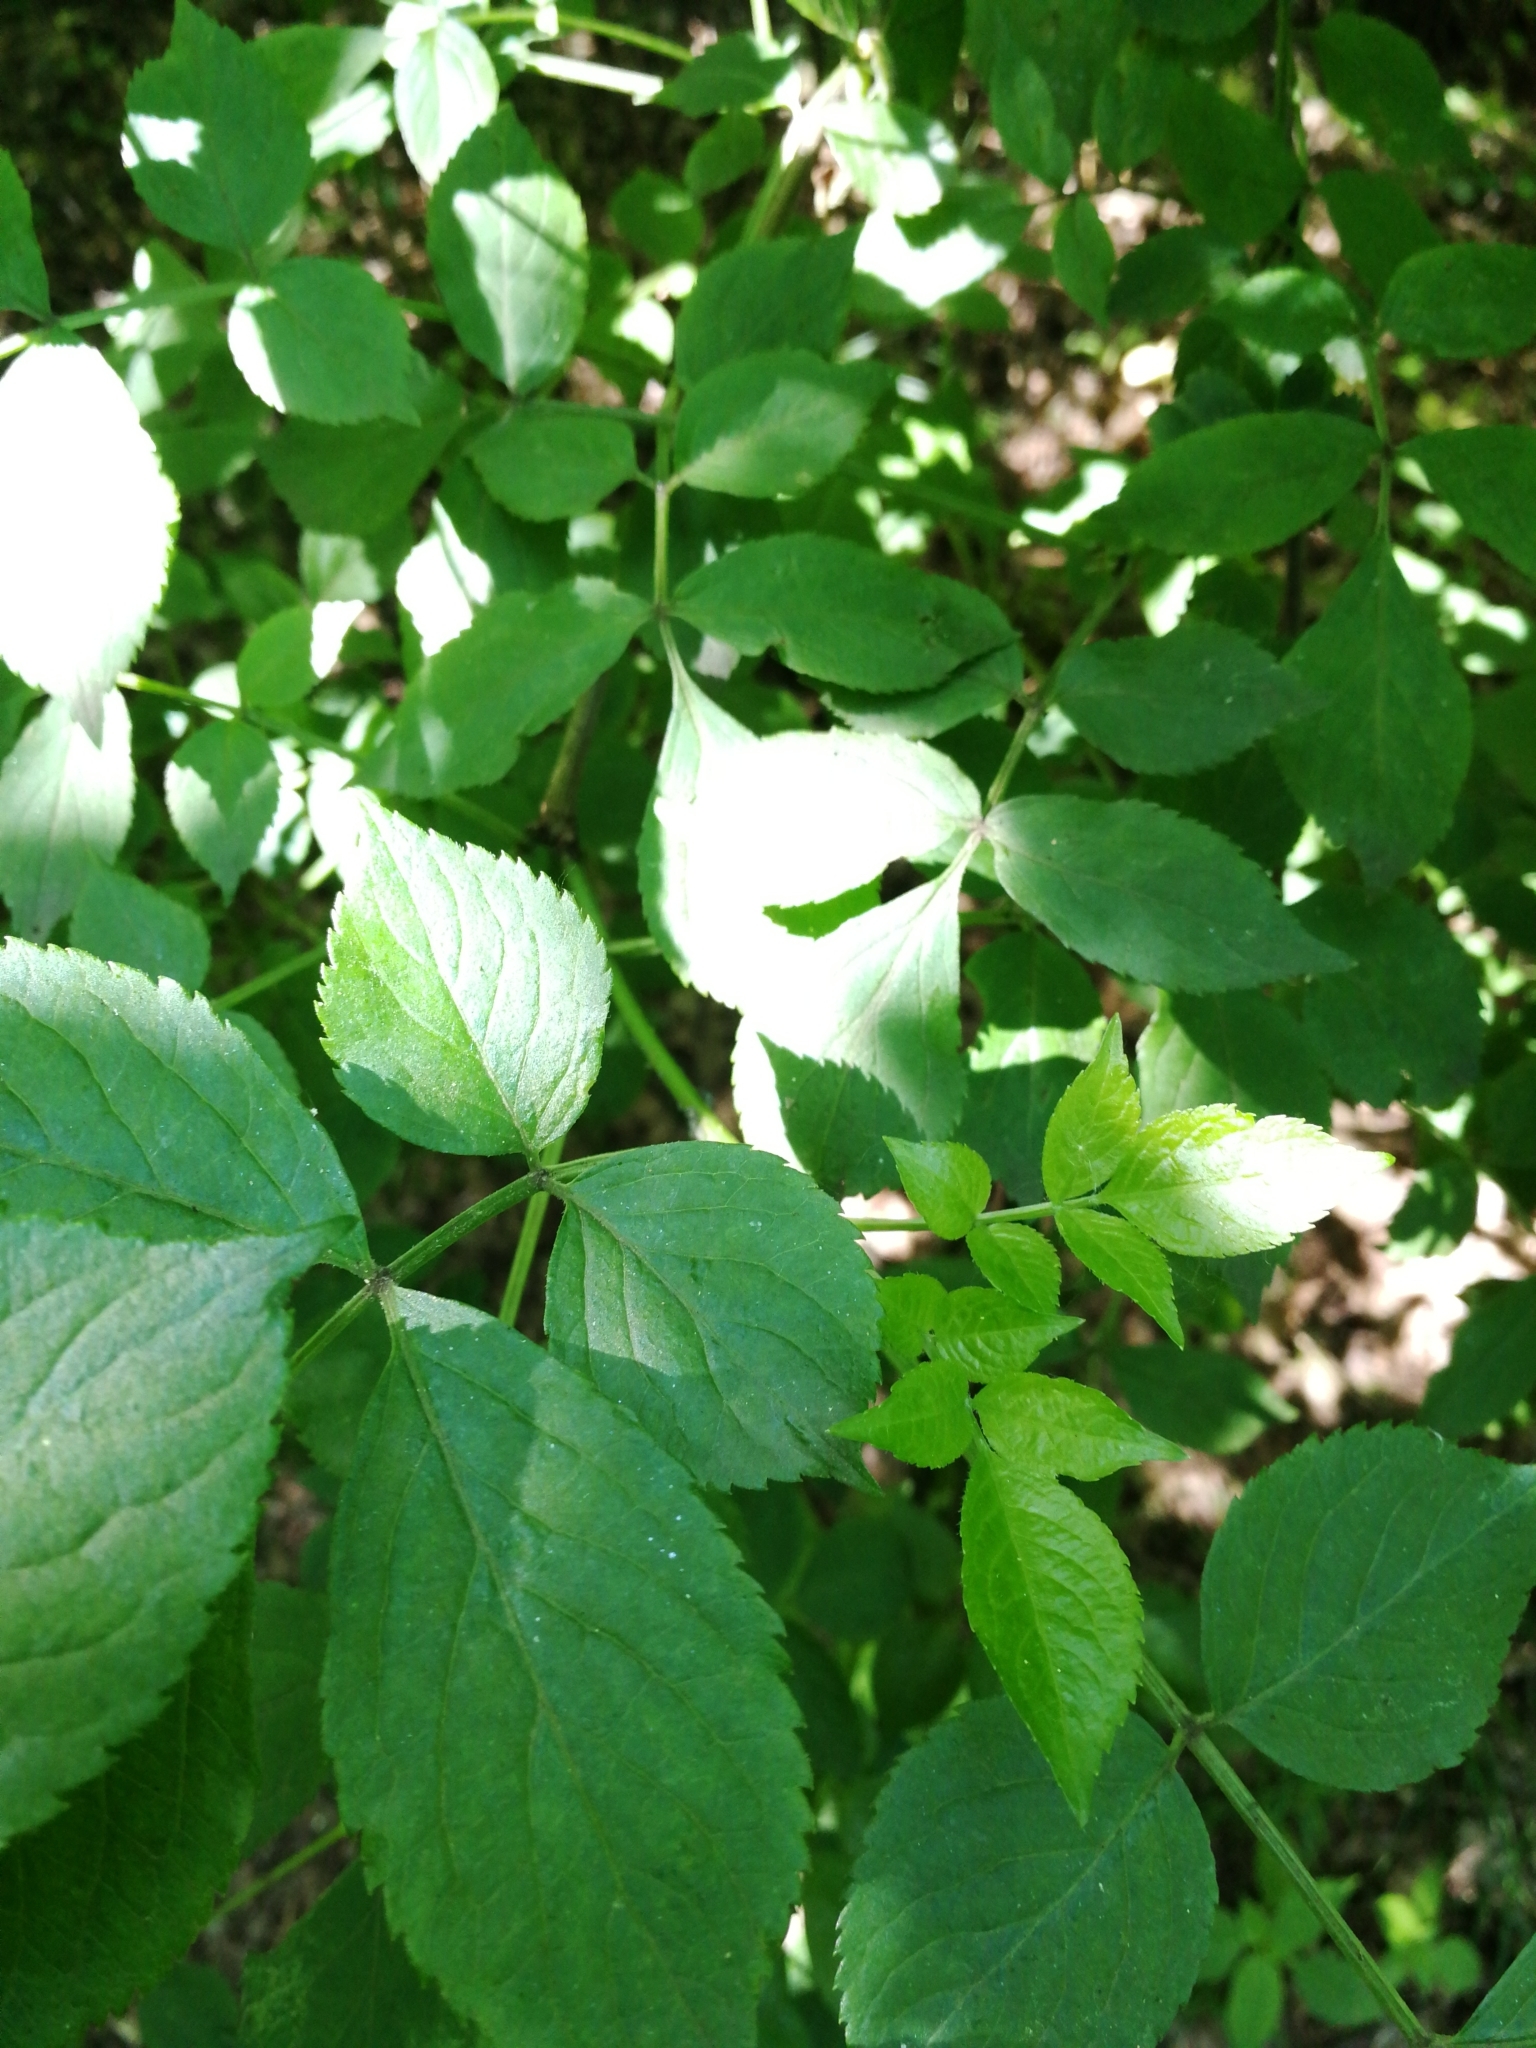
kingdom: Plantae
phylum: Tracheophyta
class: Magnoliopsida
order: Dipsacales
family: Viburnaceae
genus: Sambucus
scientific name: Sambucus nigra
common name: Elder
